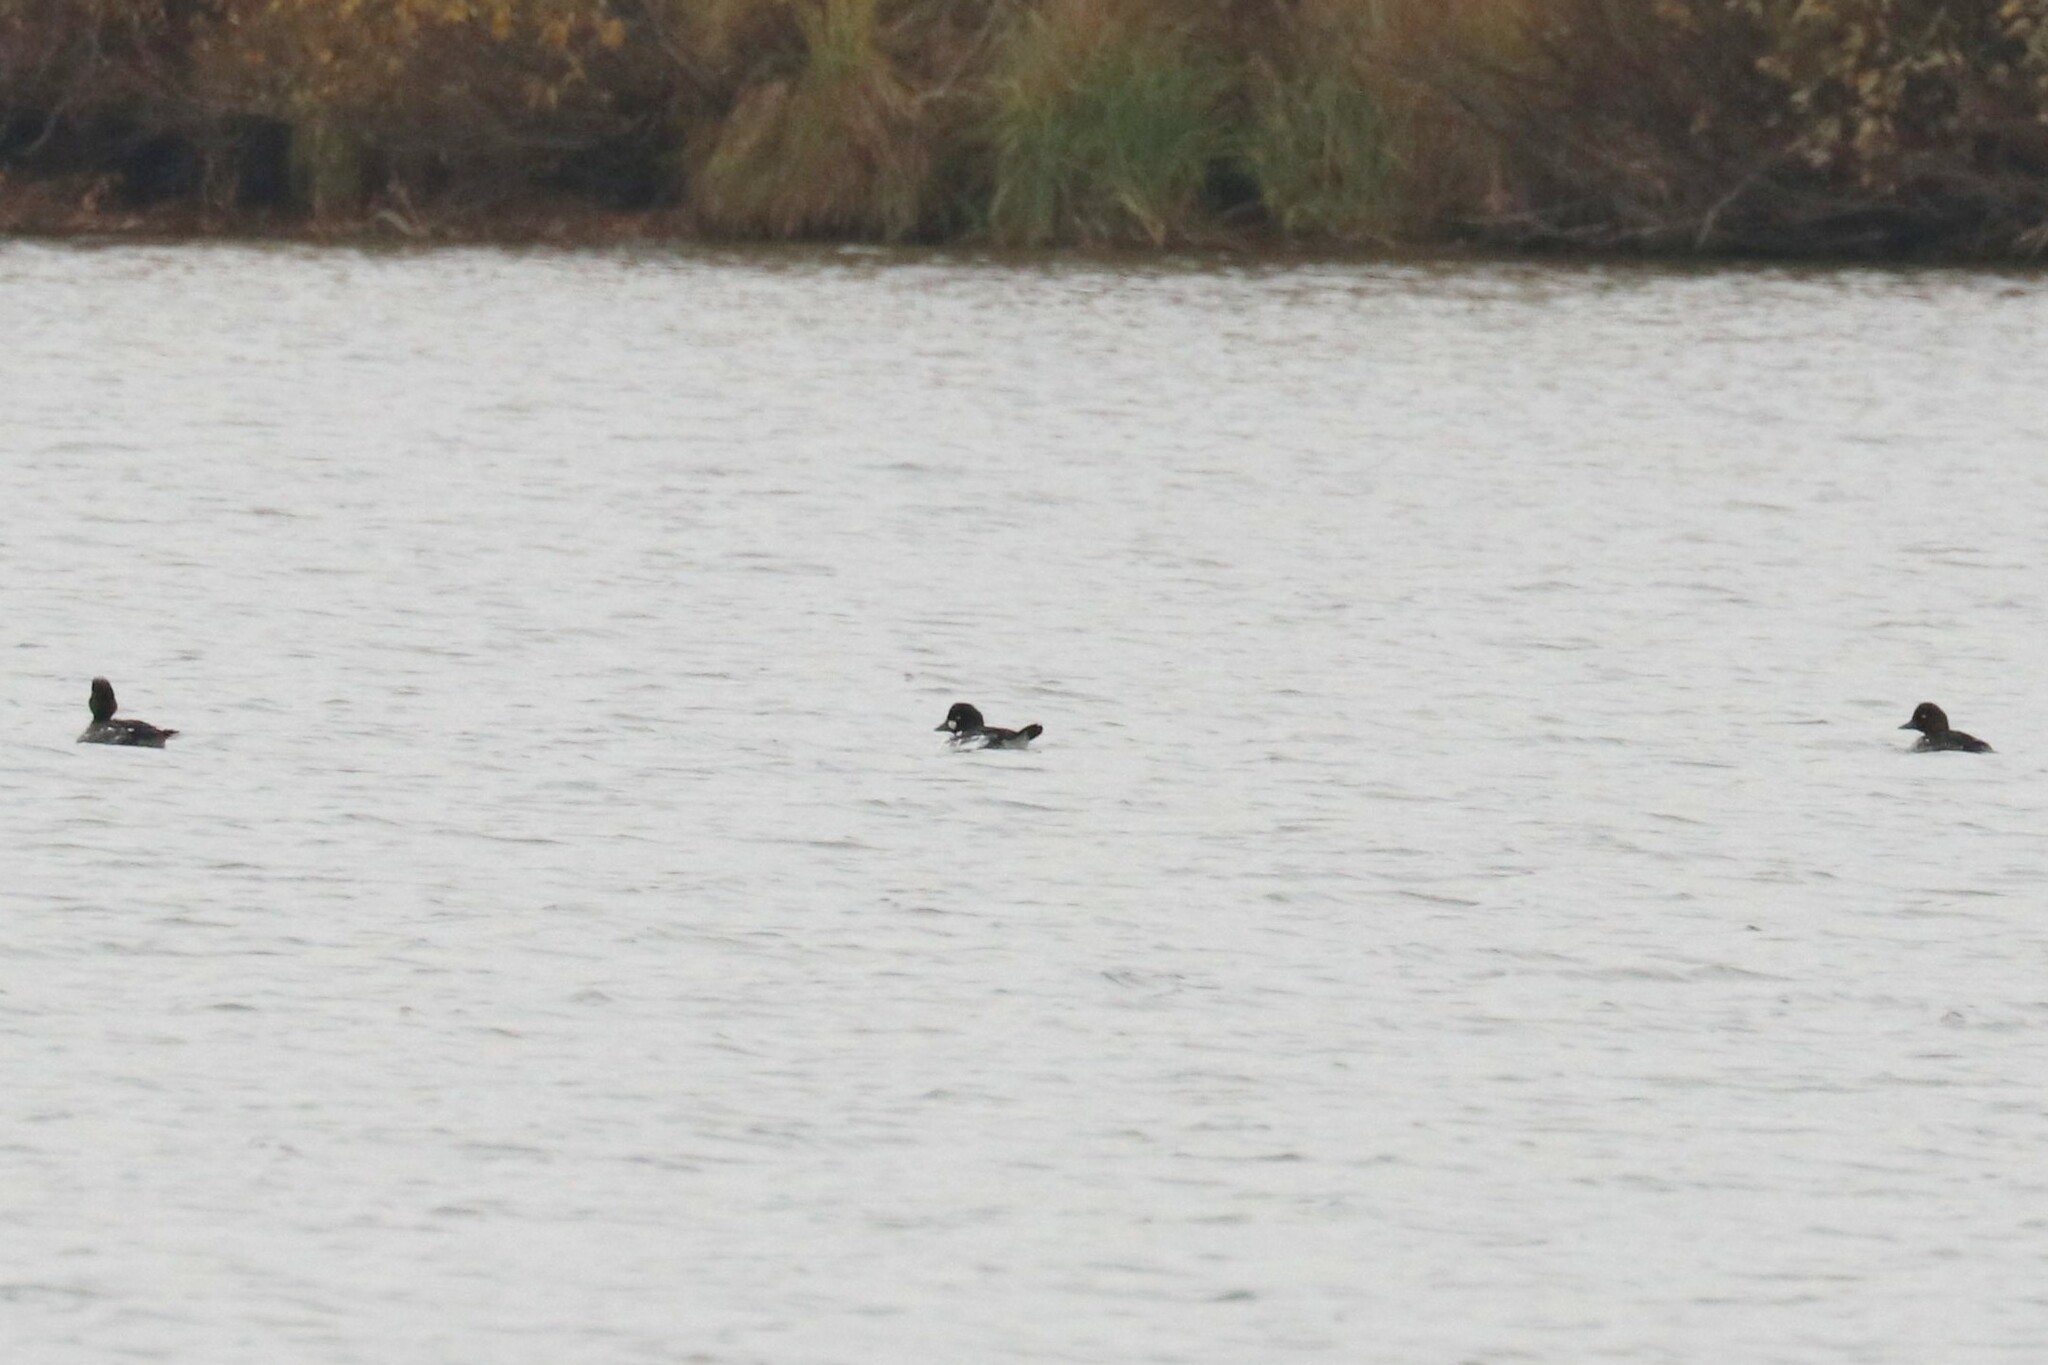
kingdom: Animalia
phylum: Chordata
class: Aves
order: Anseriformes
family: Anatidae
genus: Bucephala
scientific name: Bucephala clangula
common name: Common goldeneye
